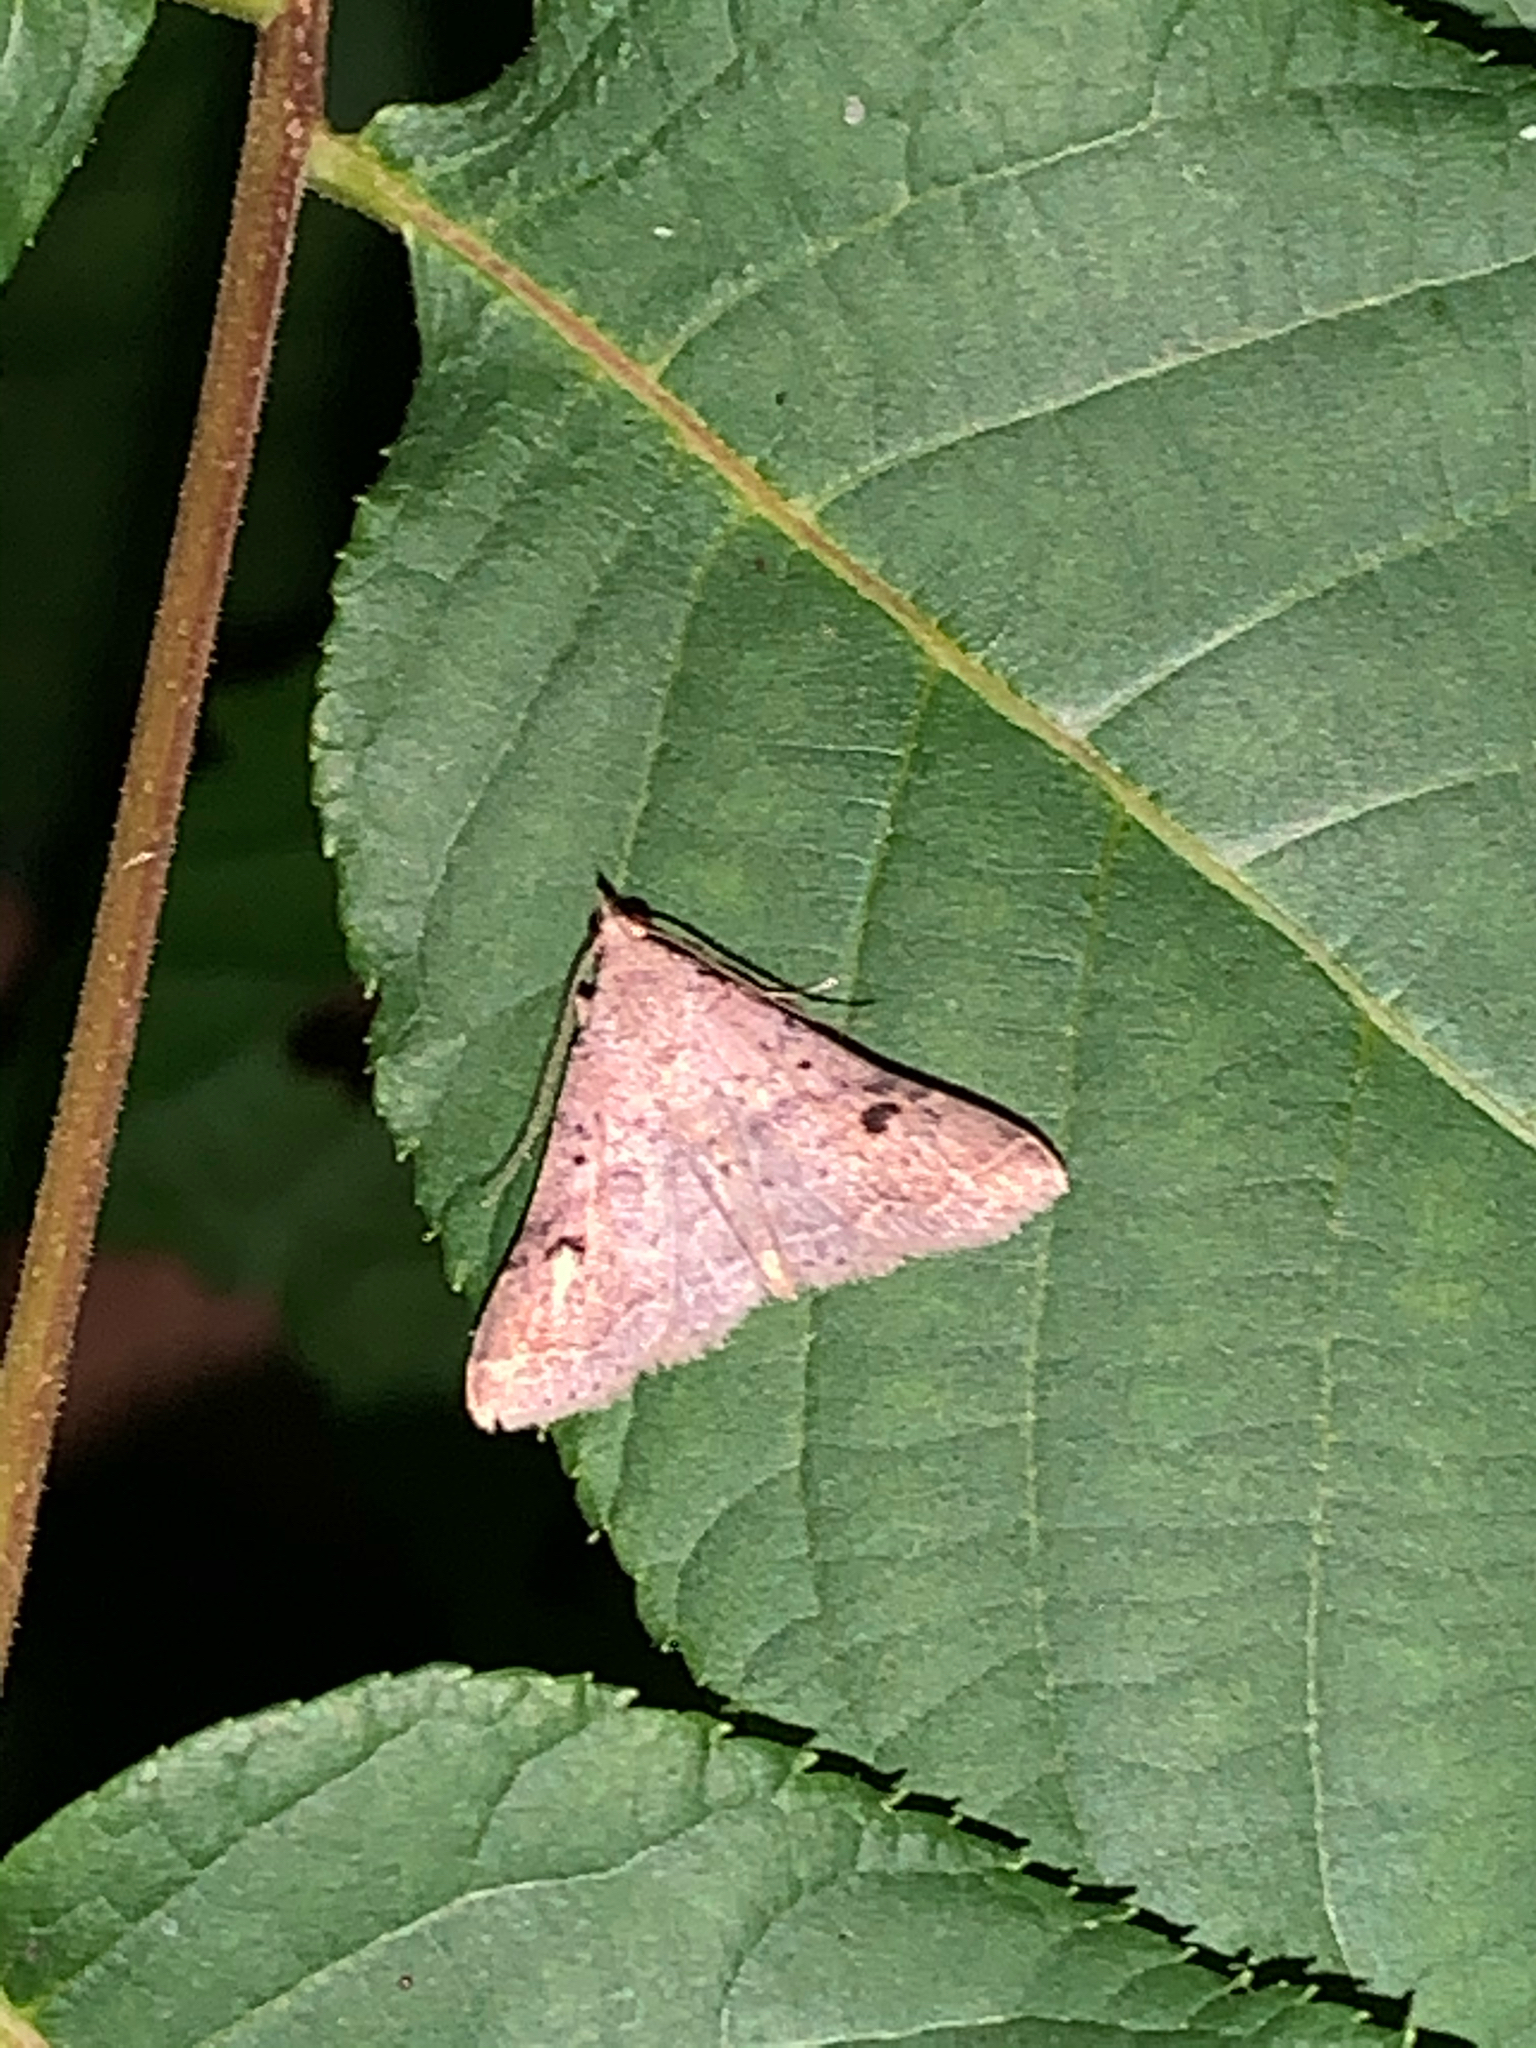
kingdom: Animalia
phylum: Arthropoda
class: Insecta
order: Lepidoptera
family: Erebidae
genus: Bleptina
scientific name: Bleptina caradrinalis
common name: Bent-winged owlet
